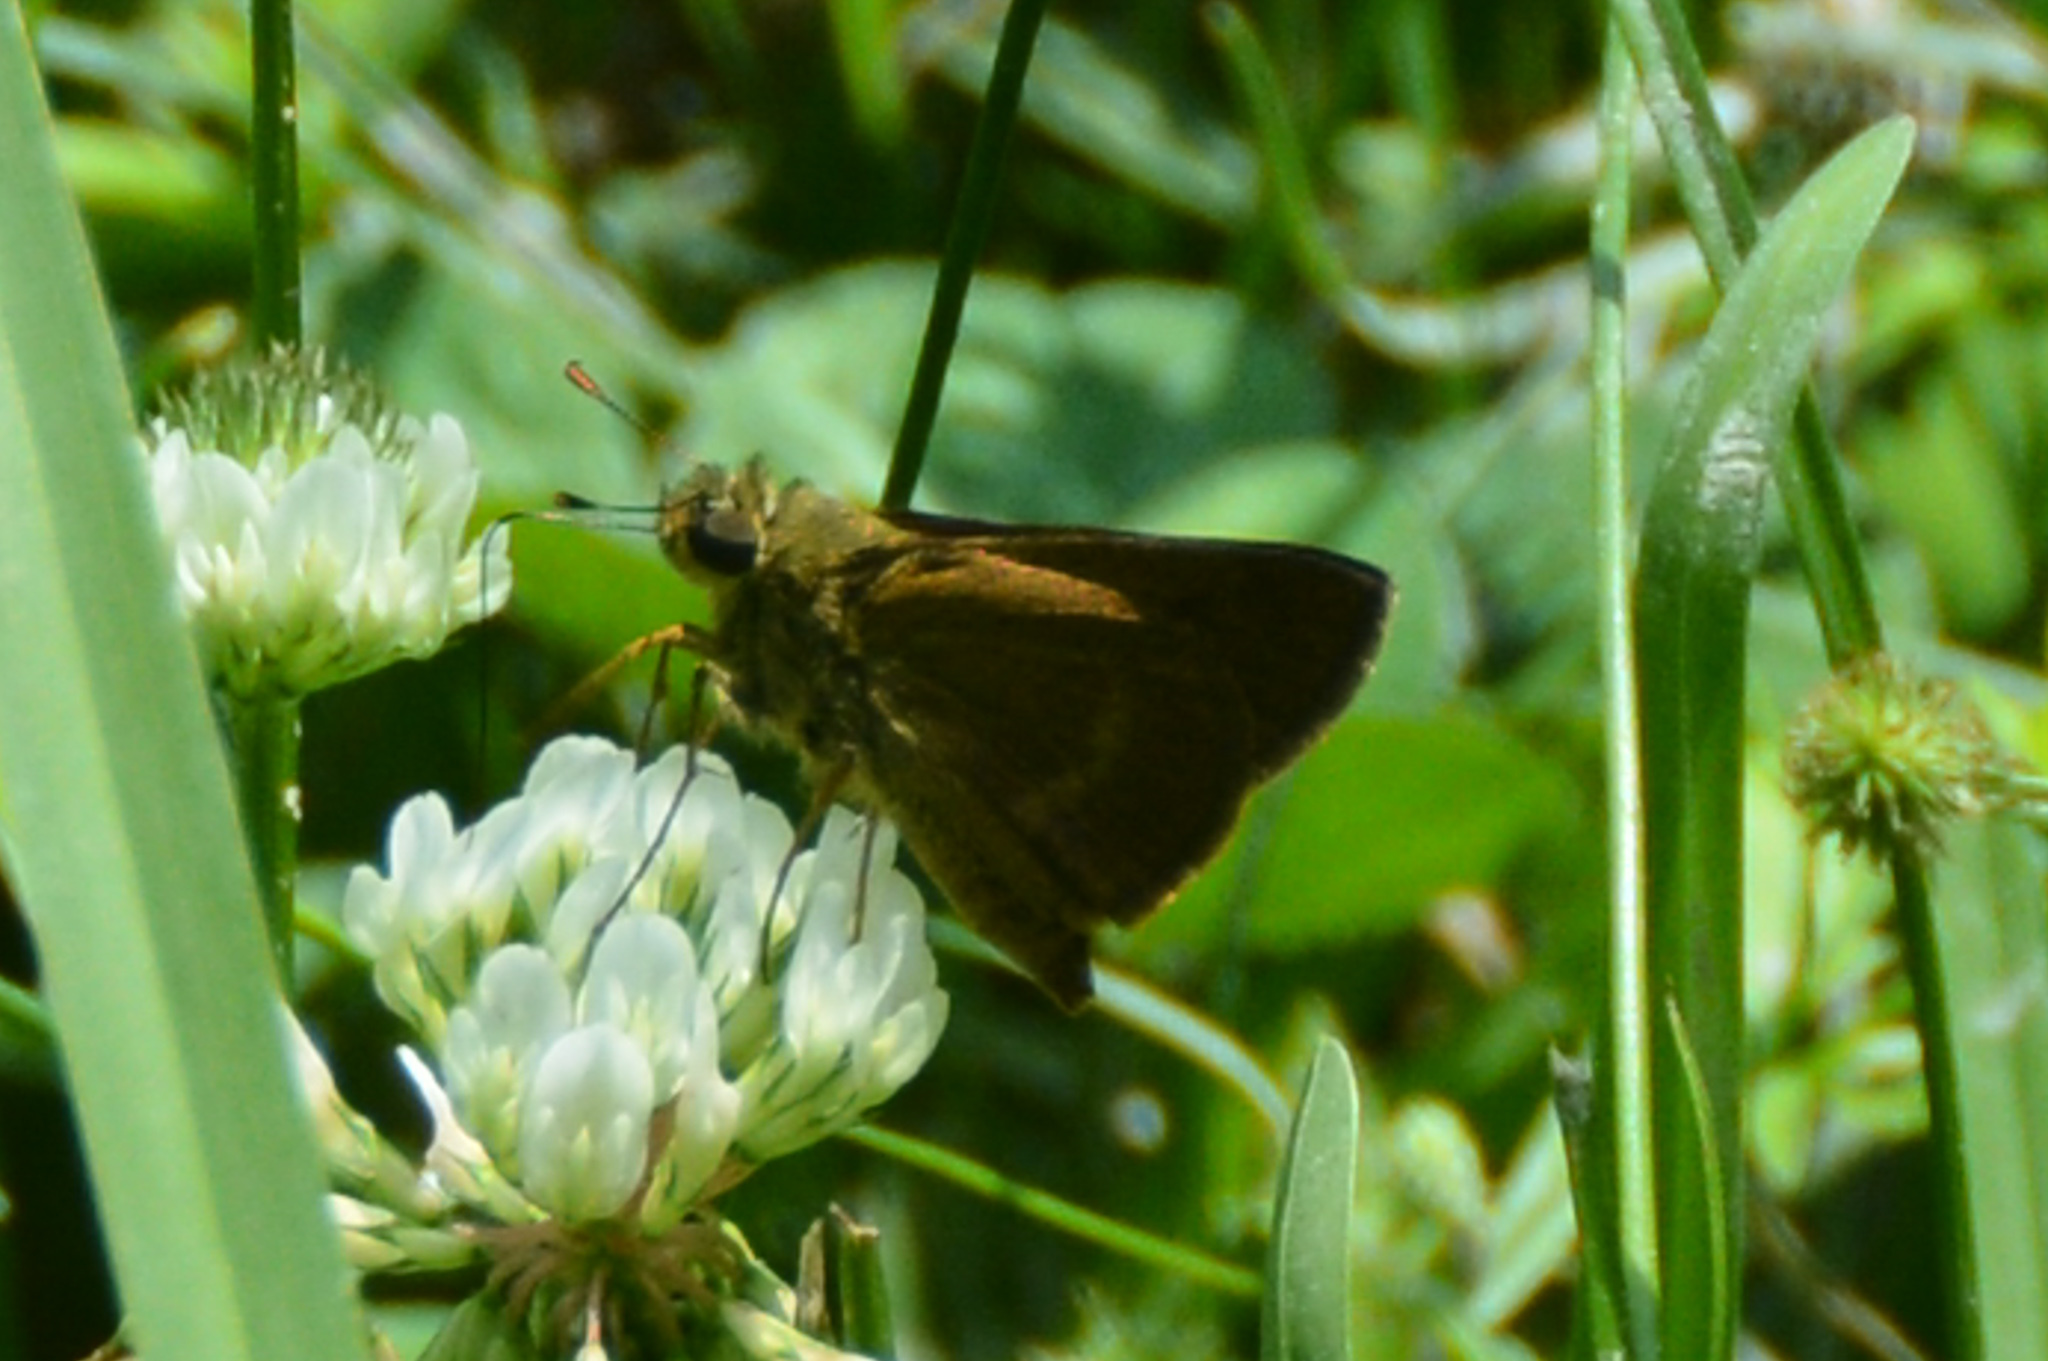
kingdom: Animalia
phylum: Arthropoda
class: Insecta
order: Lepidoptera
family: Hesperiidae
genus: Polites
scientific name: Polites themistocles
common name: Tawny-edged skipper
